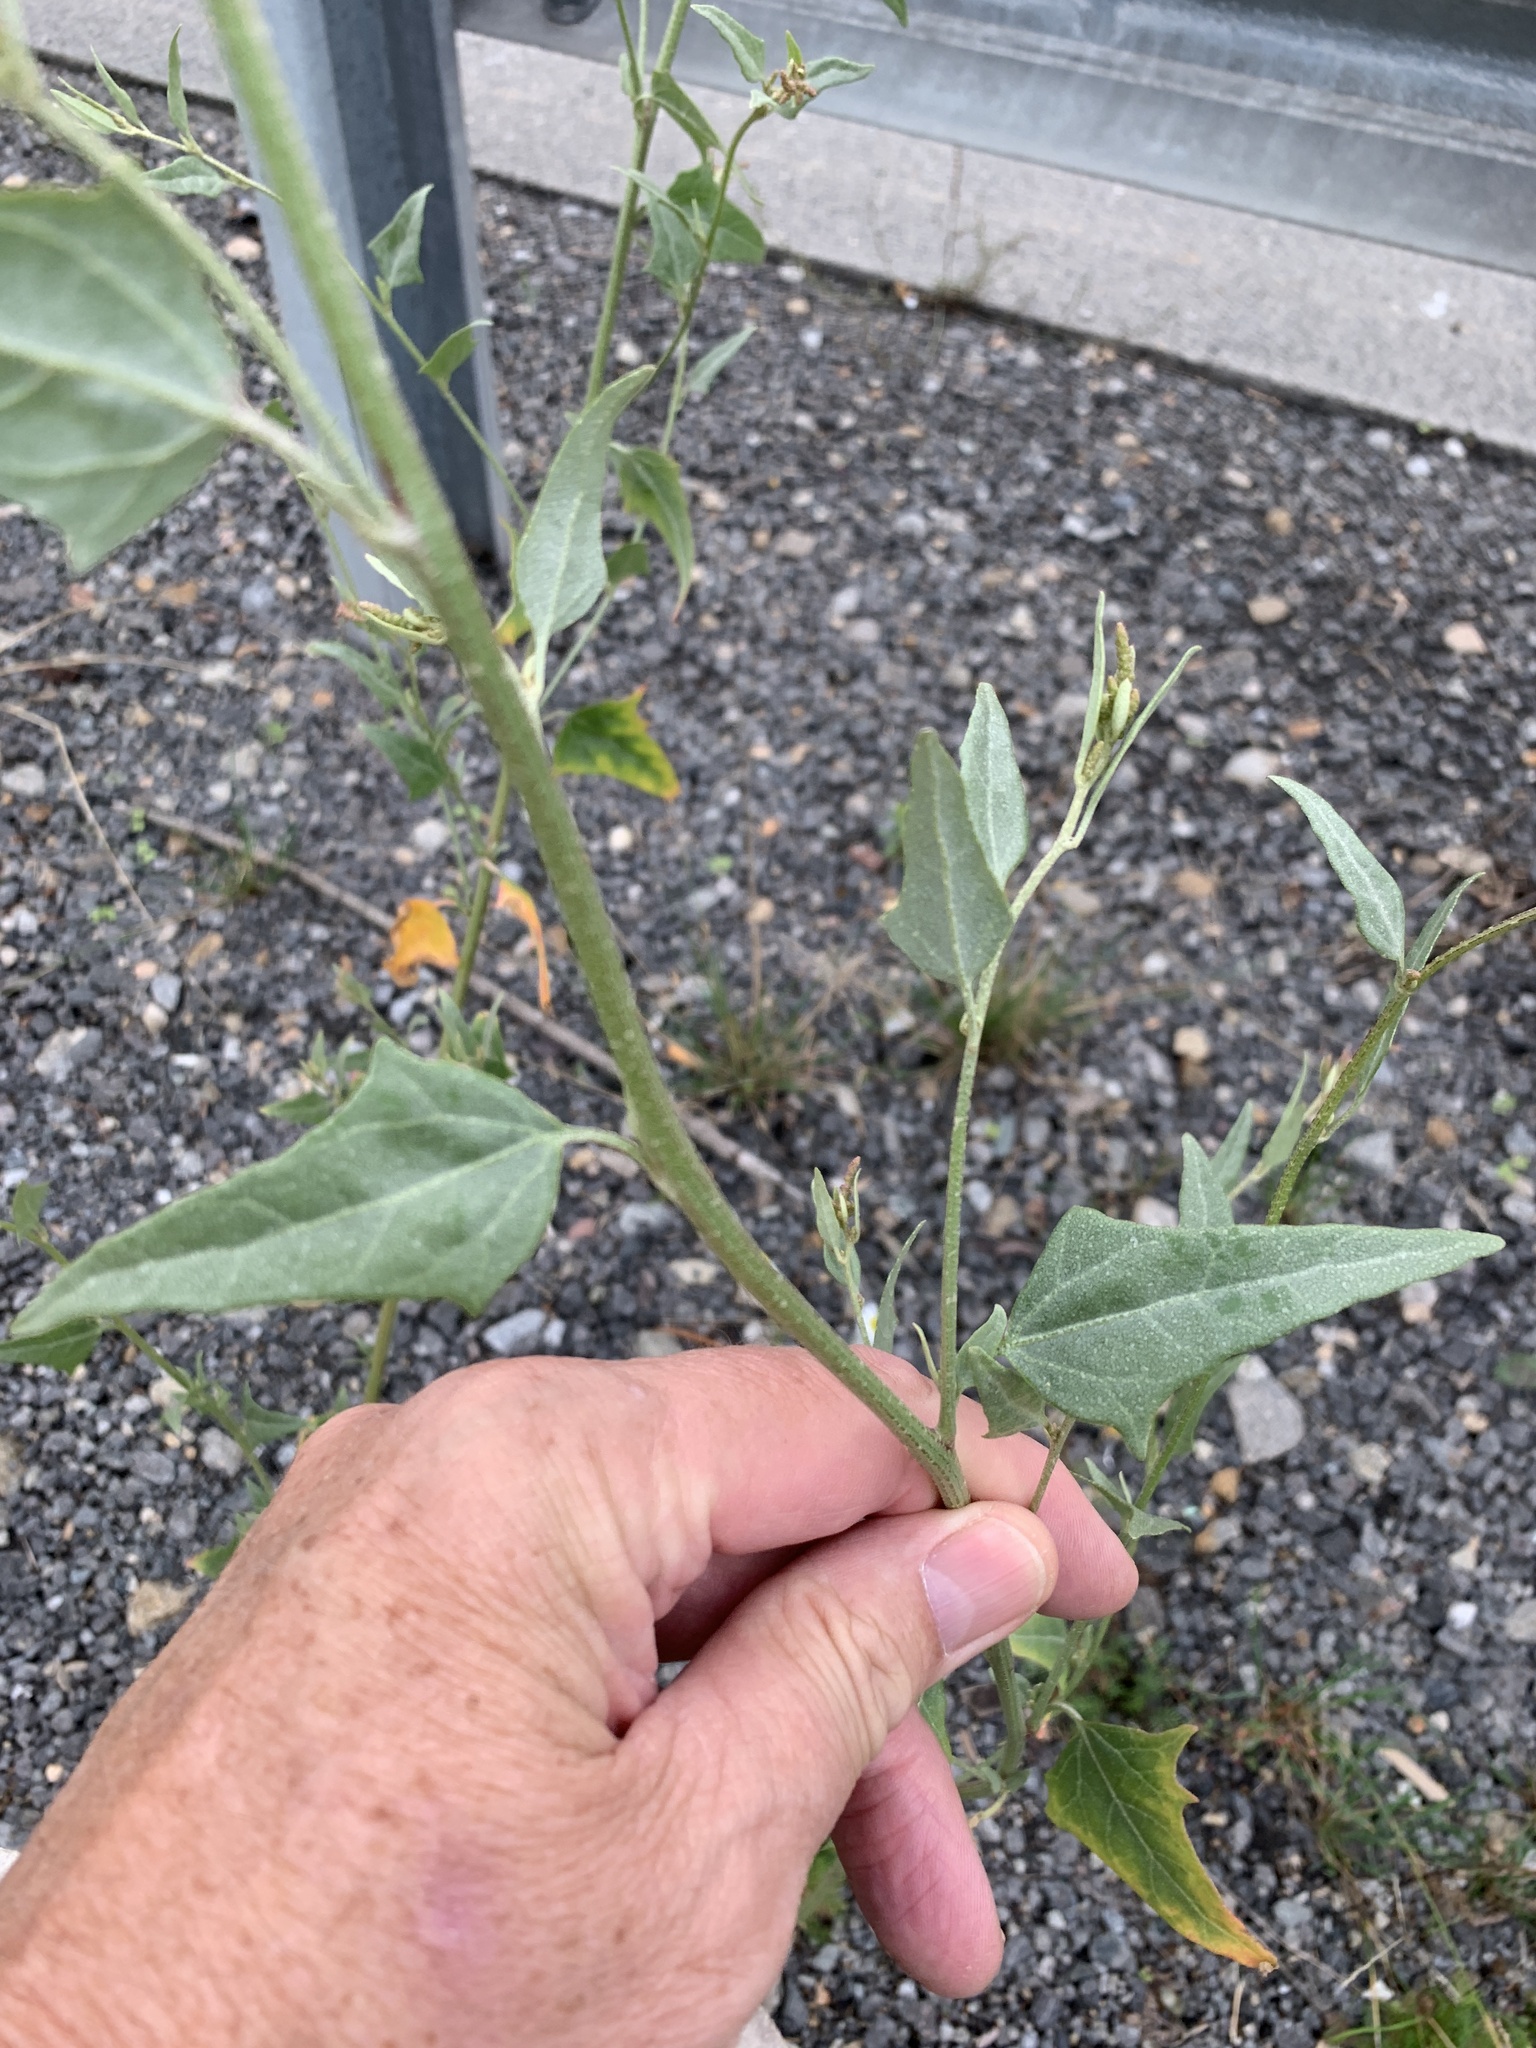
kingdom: Plantae
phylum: Tracheophyta
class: Magnoliopsida
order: Caryophyllales
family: Amaranthaceae
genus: Atriplex
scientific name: Atriplex micrantha
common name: Twoscale saltbush
